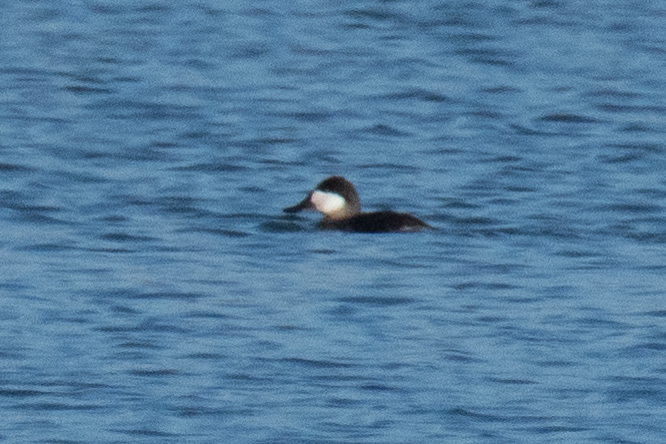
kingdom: Animalia
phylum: Chordata
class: Aves
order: Anseriformes
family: Anatidae
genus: Oxyura
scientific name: Oxyura jamaicensis
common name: Ruddy duck
